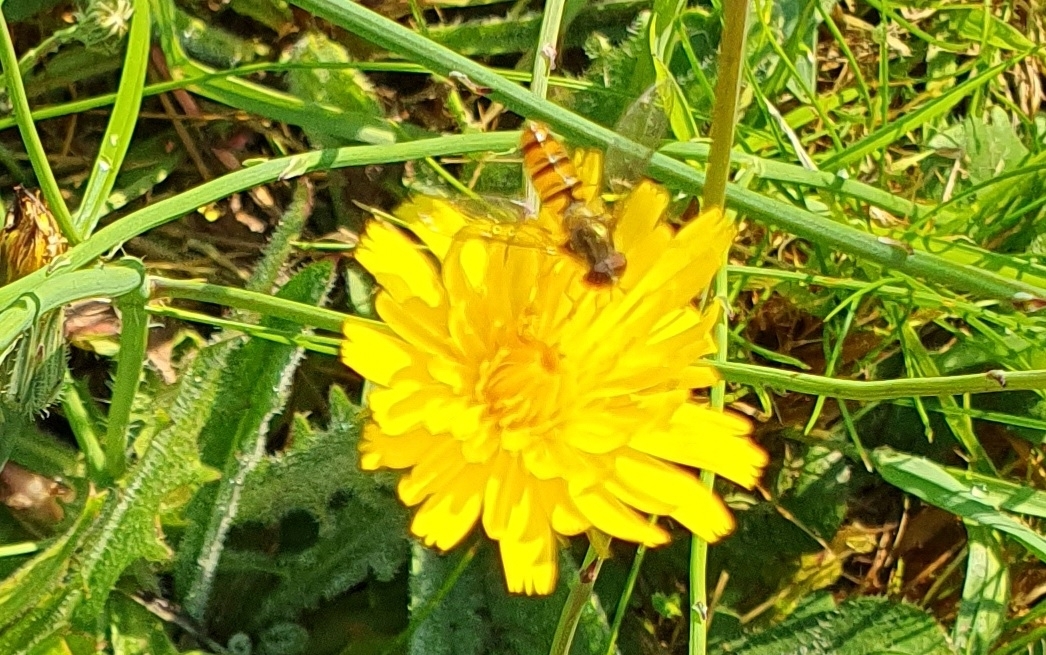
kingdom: Animalia
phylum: Arthropoda
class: Insecta
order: Diptera
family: Syrphidae
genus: Episyrphus
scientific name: Episyrphus balteatus
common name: Marmalade hoverfly
